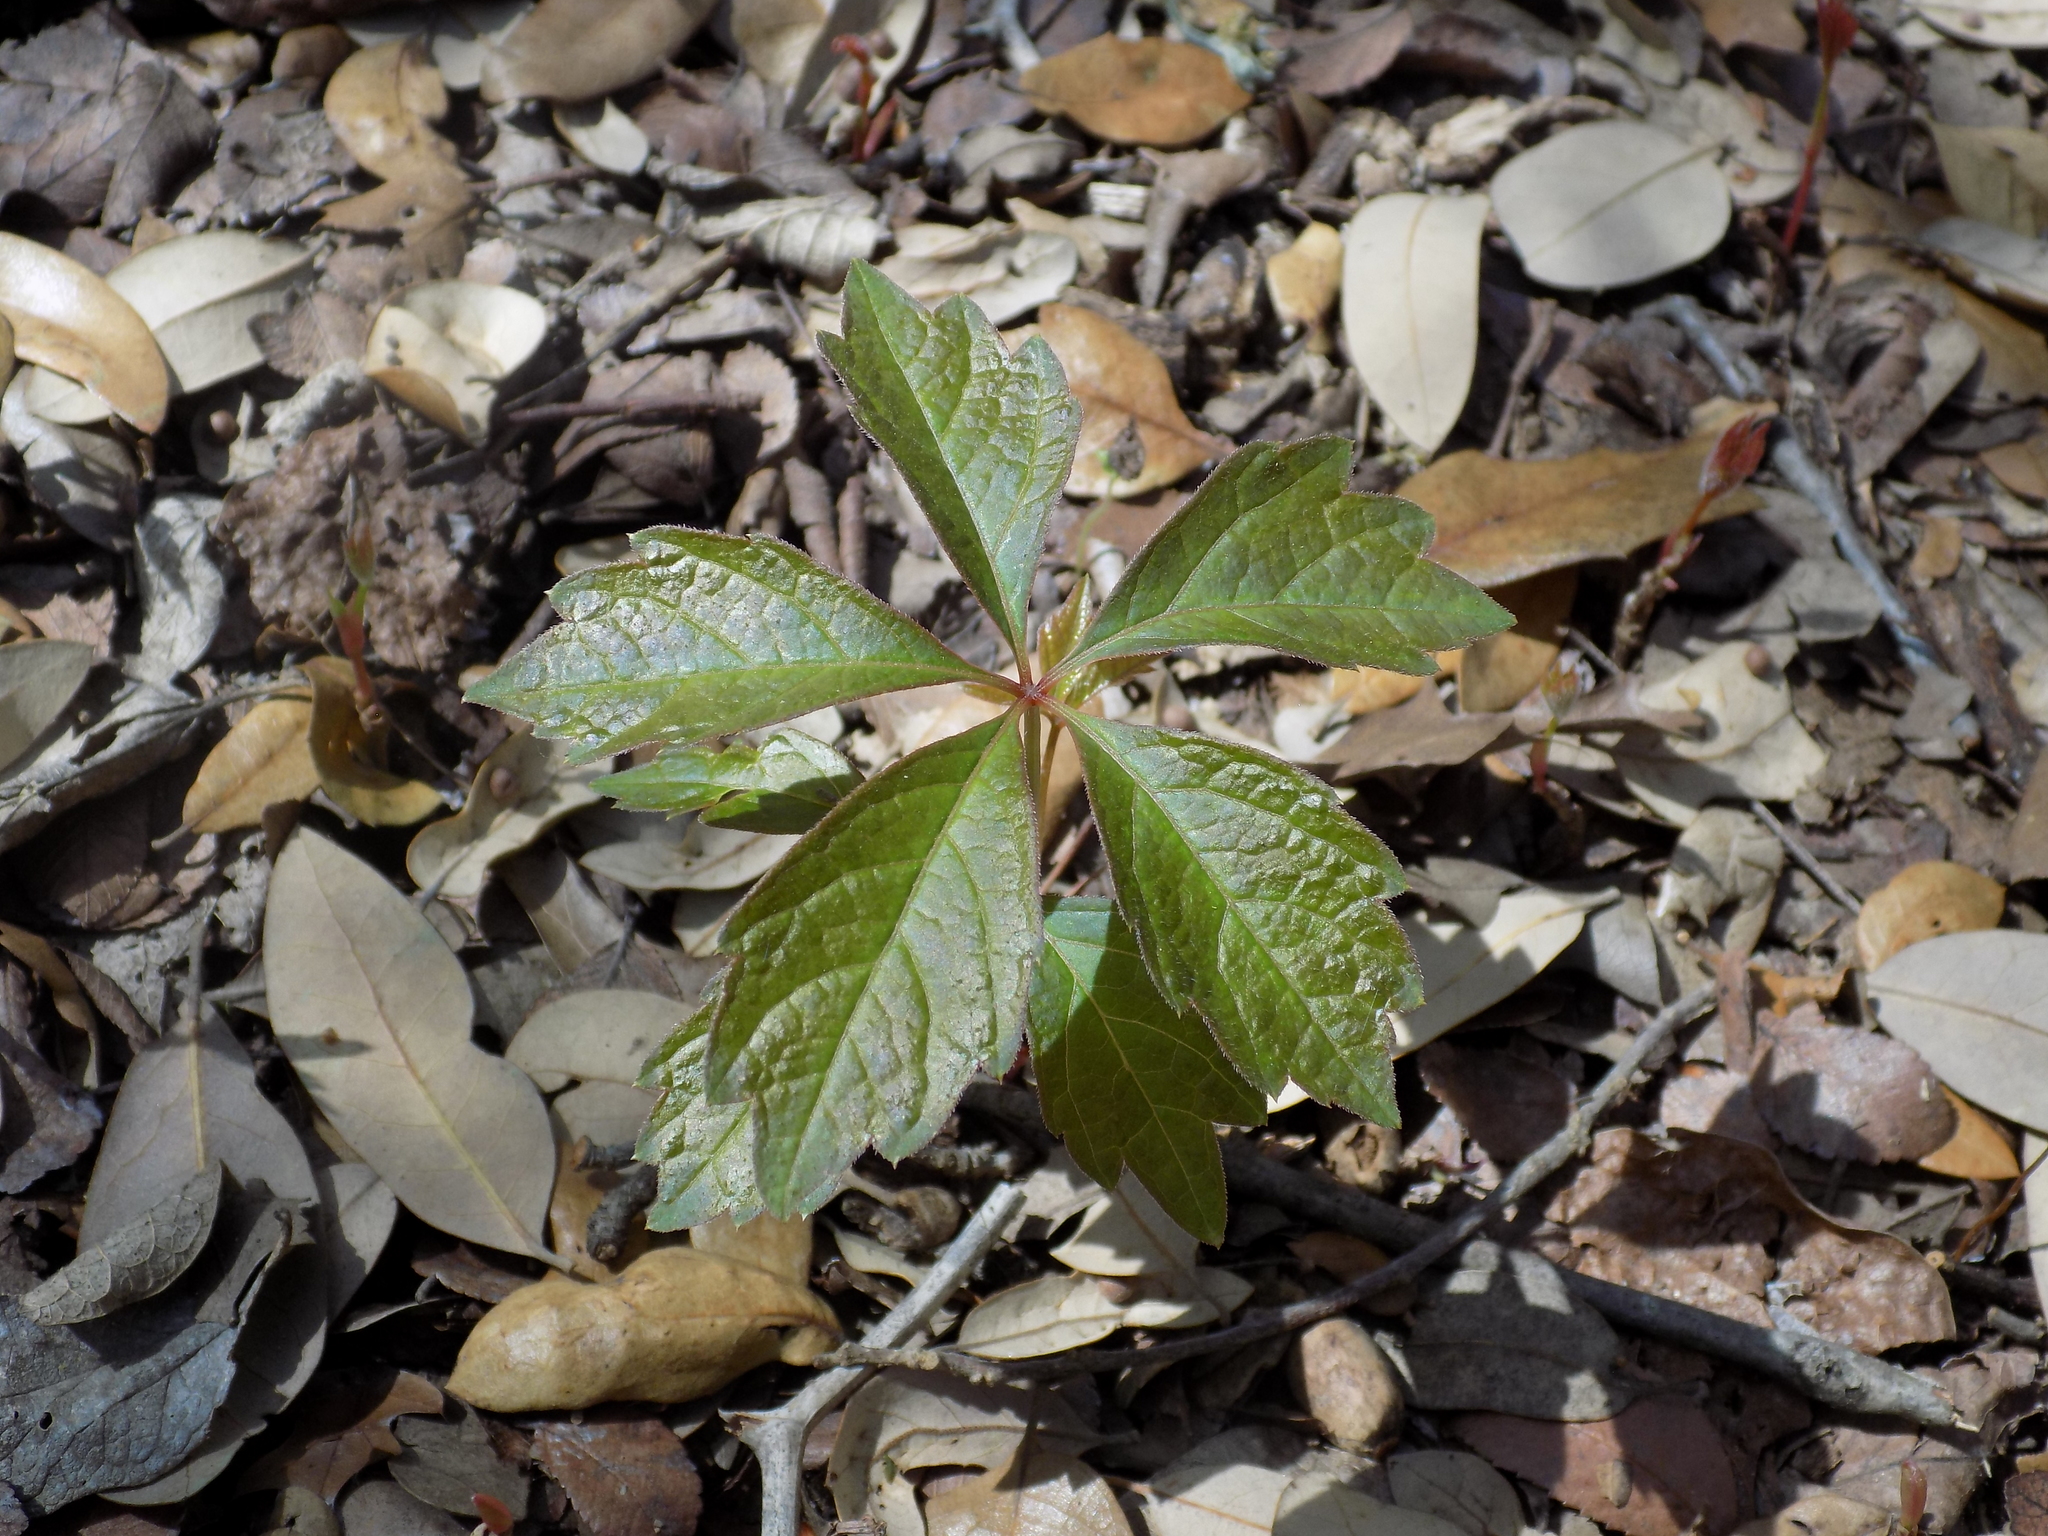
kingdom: Plantae
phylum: Tracheophyta
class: Magnoliopsida
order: Vitales
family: Vitaceae
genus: Parthenocissus
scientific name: Parthenocissus quinquefolia
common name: Virginia-creeper
